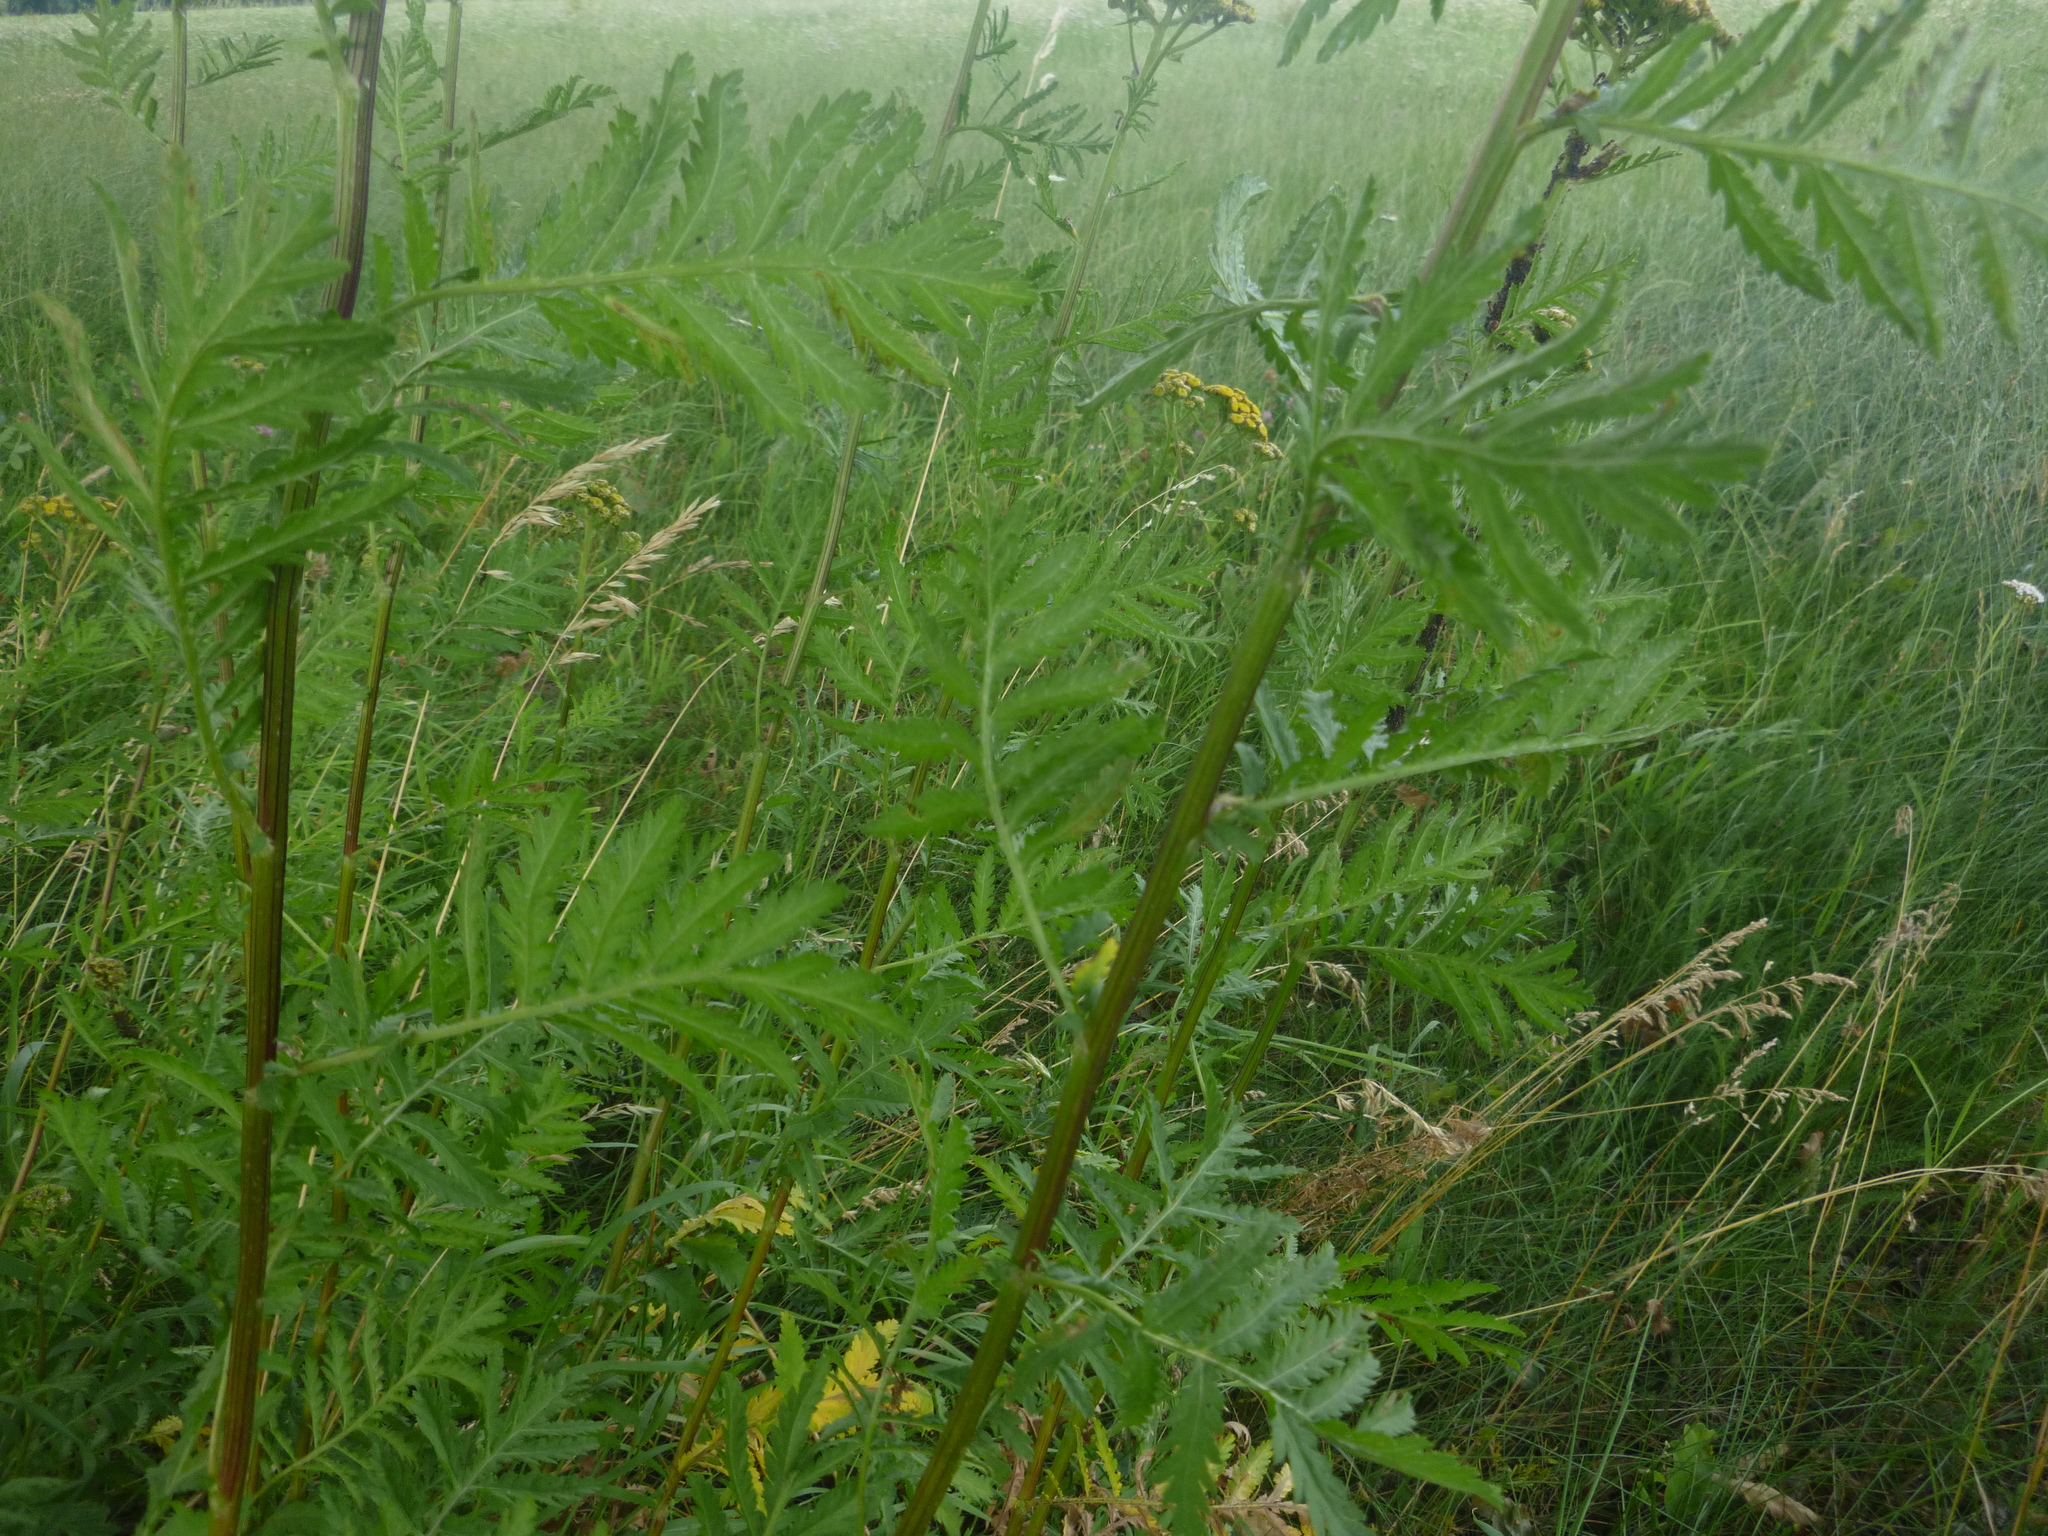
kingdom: Plantae
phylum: Tracheophyta
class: Magnoliopsida
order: Asterales
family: Asteraceae
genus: Tanacetum
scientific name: Tanacetum vulgare
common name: Common tansy
